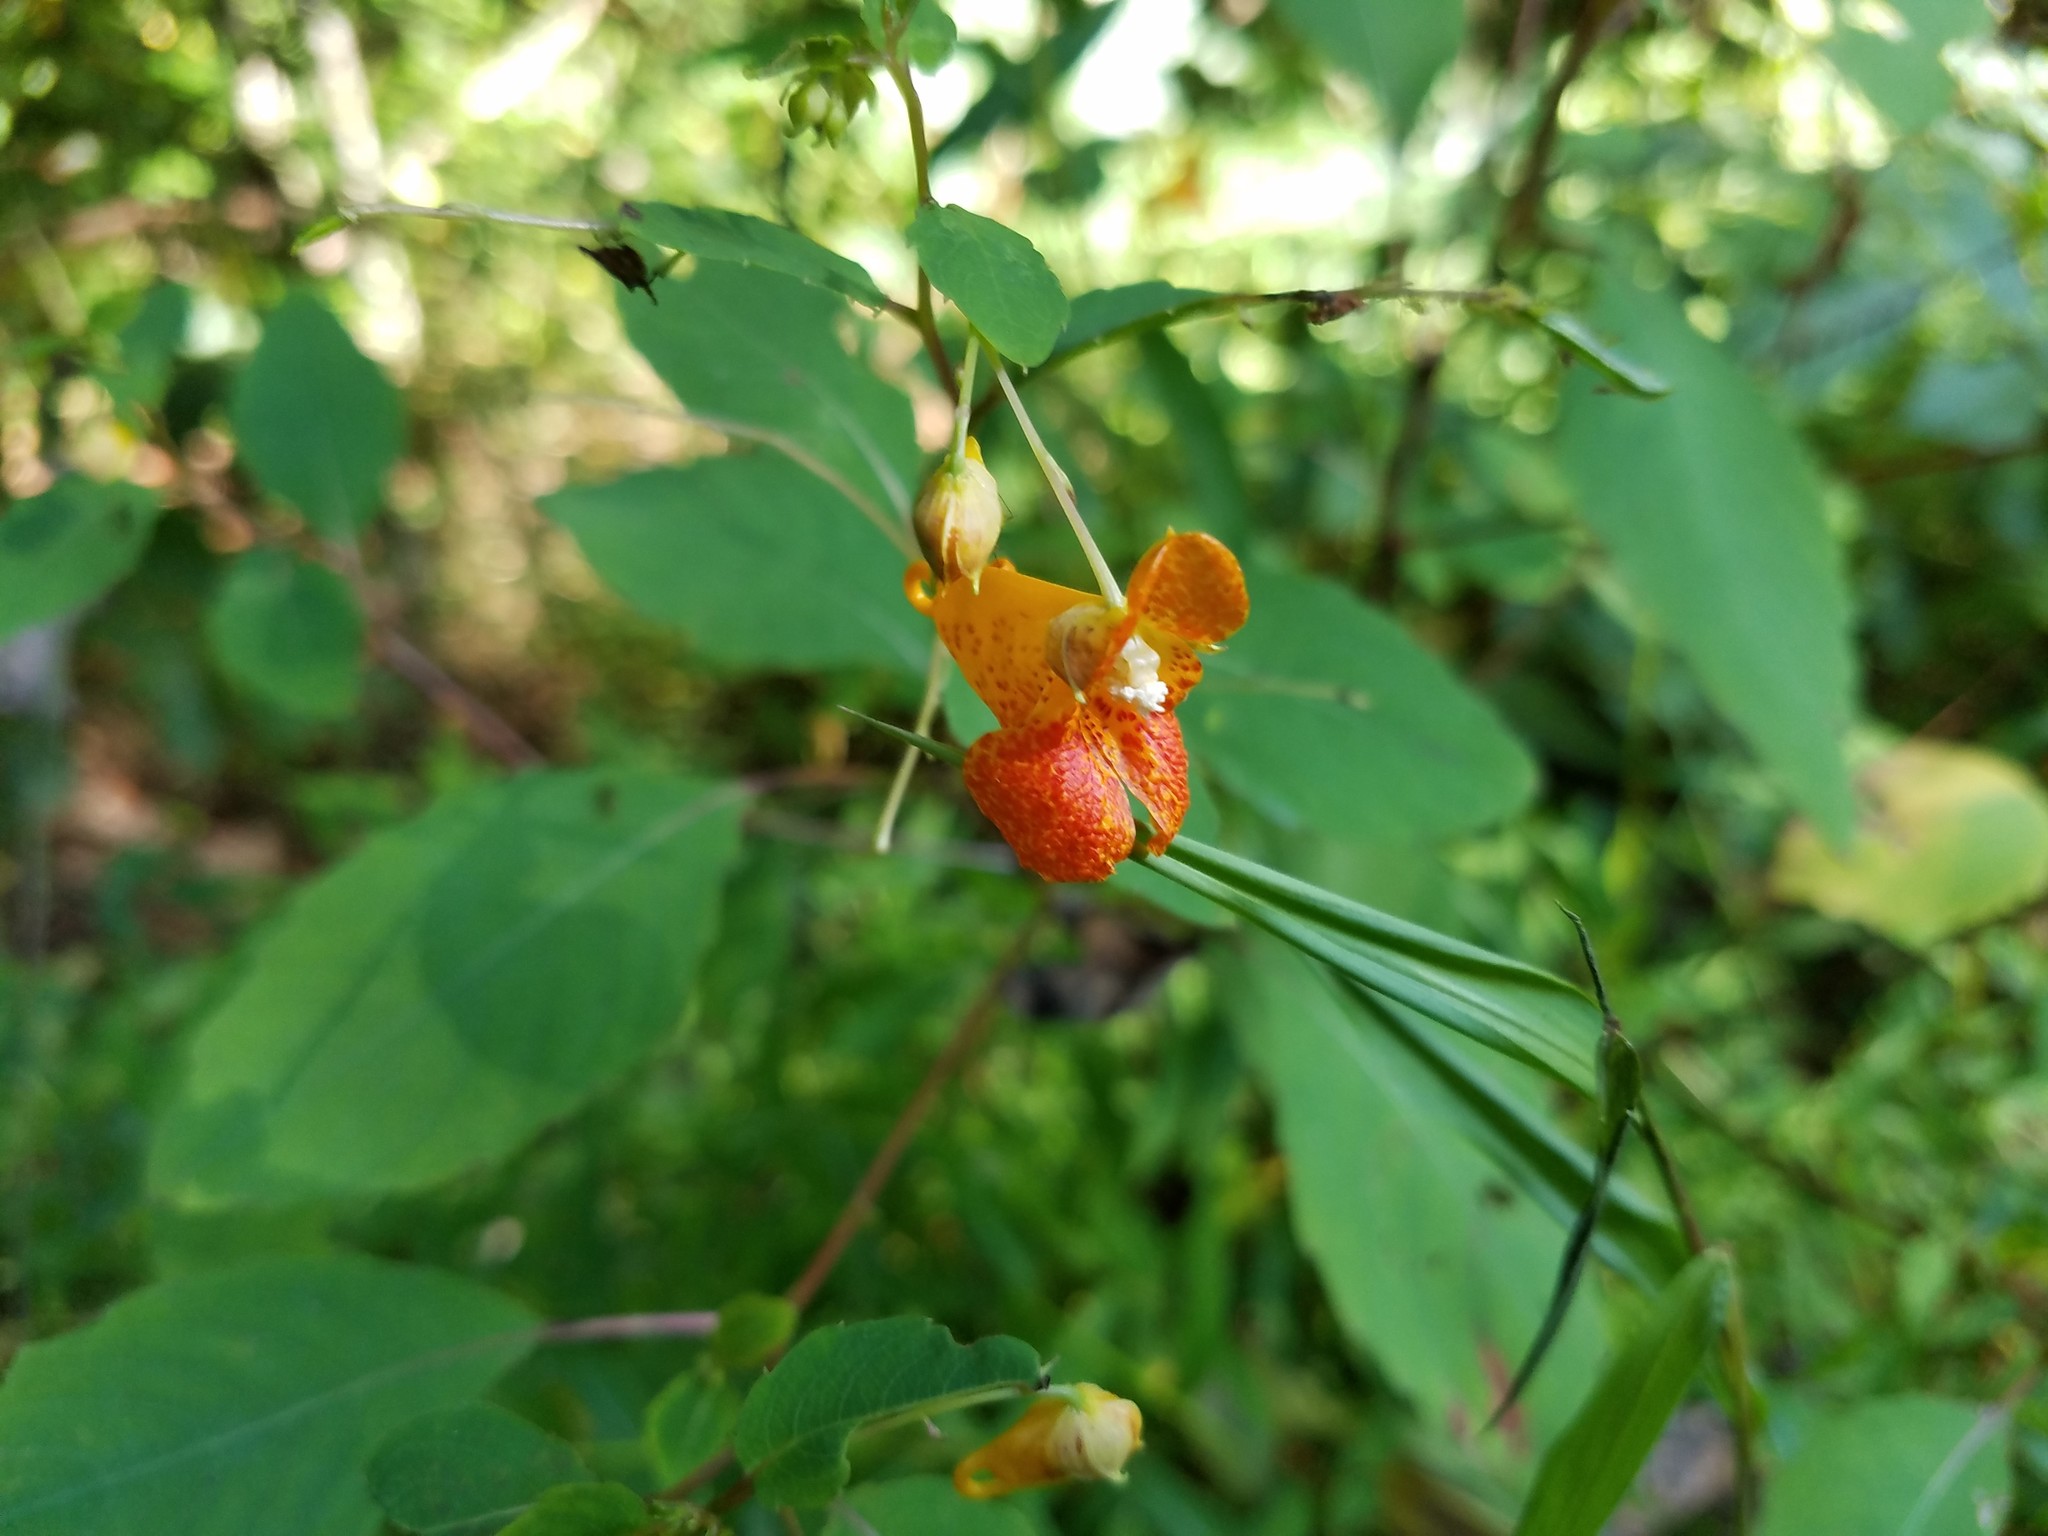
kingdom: Plantae
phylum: Tracheophyta
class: Magnoliopsida
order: Ericales
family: Balsaminaceae
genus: Impatiens
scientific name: Impatiens capensis
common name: Orange balsam
